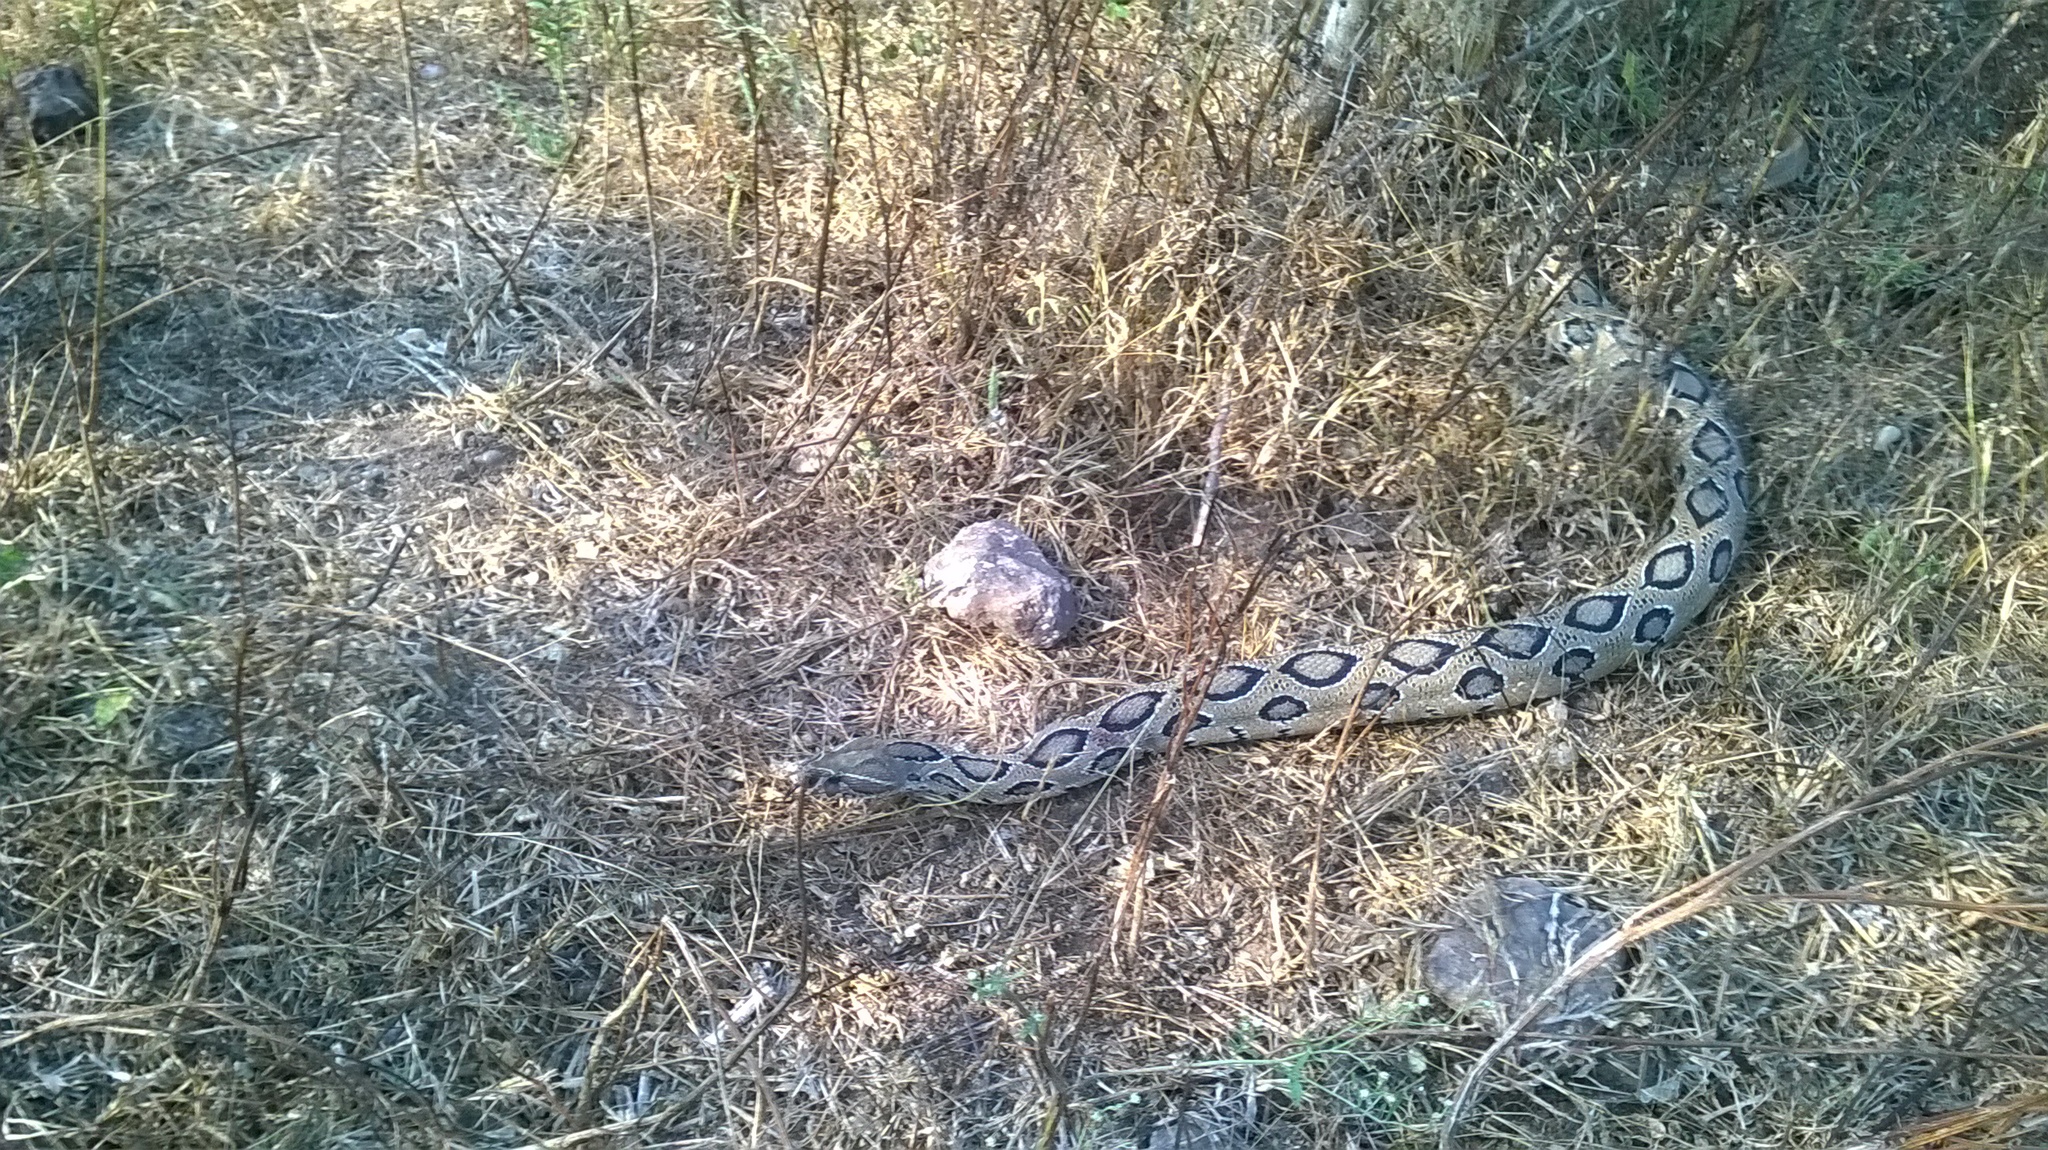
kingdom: Animalia
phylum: Chordata
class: Squamata
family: Viperidae
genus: Daboia
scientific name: Daboia russelii
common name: Western russel’s viper
